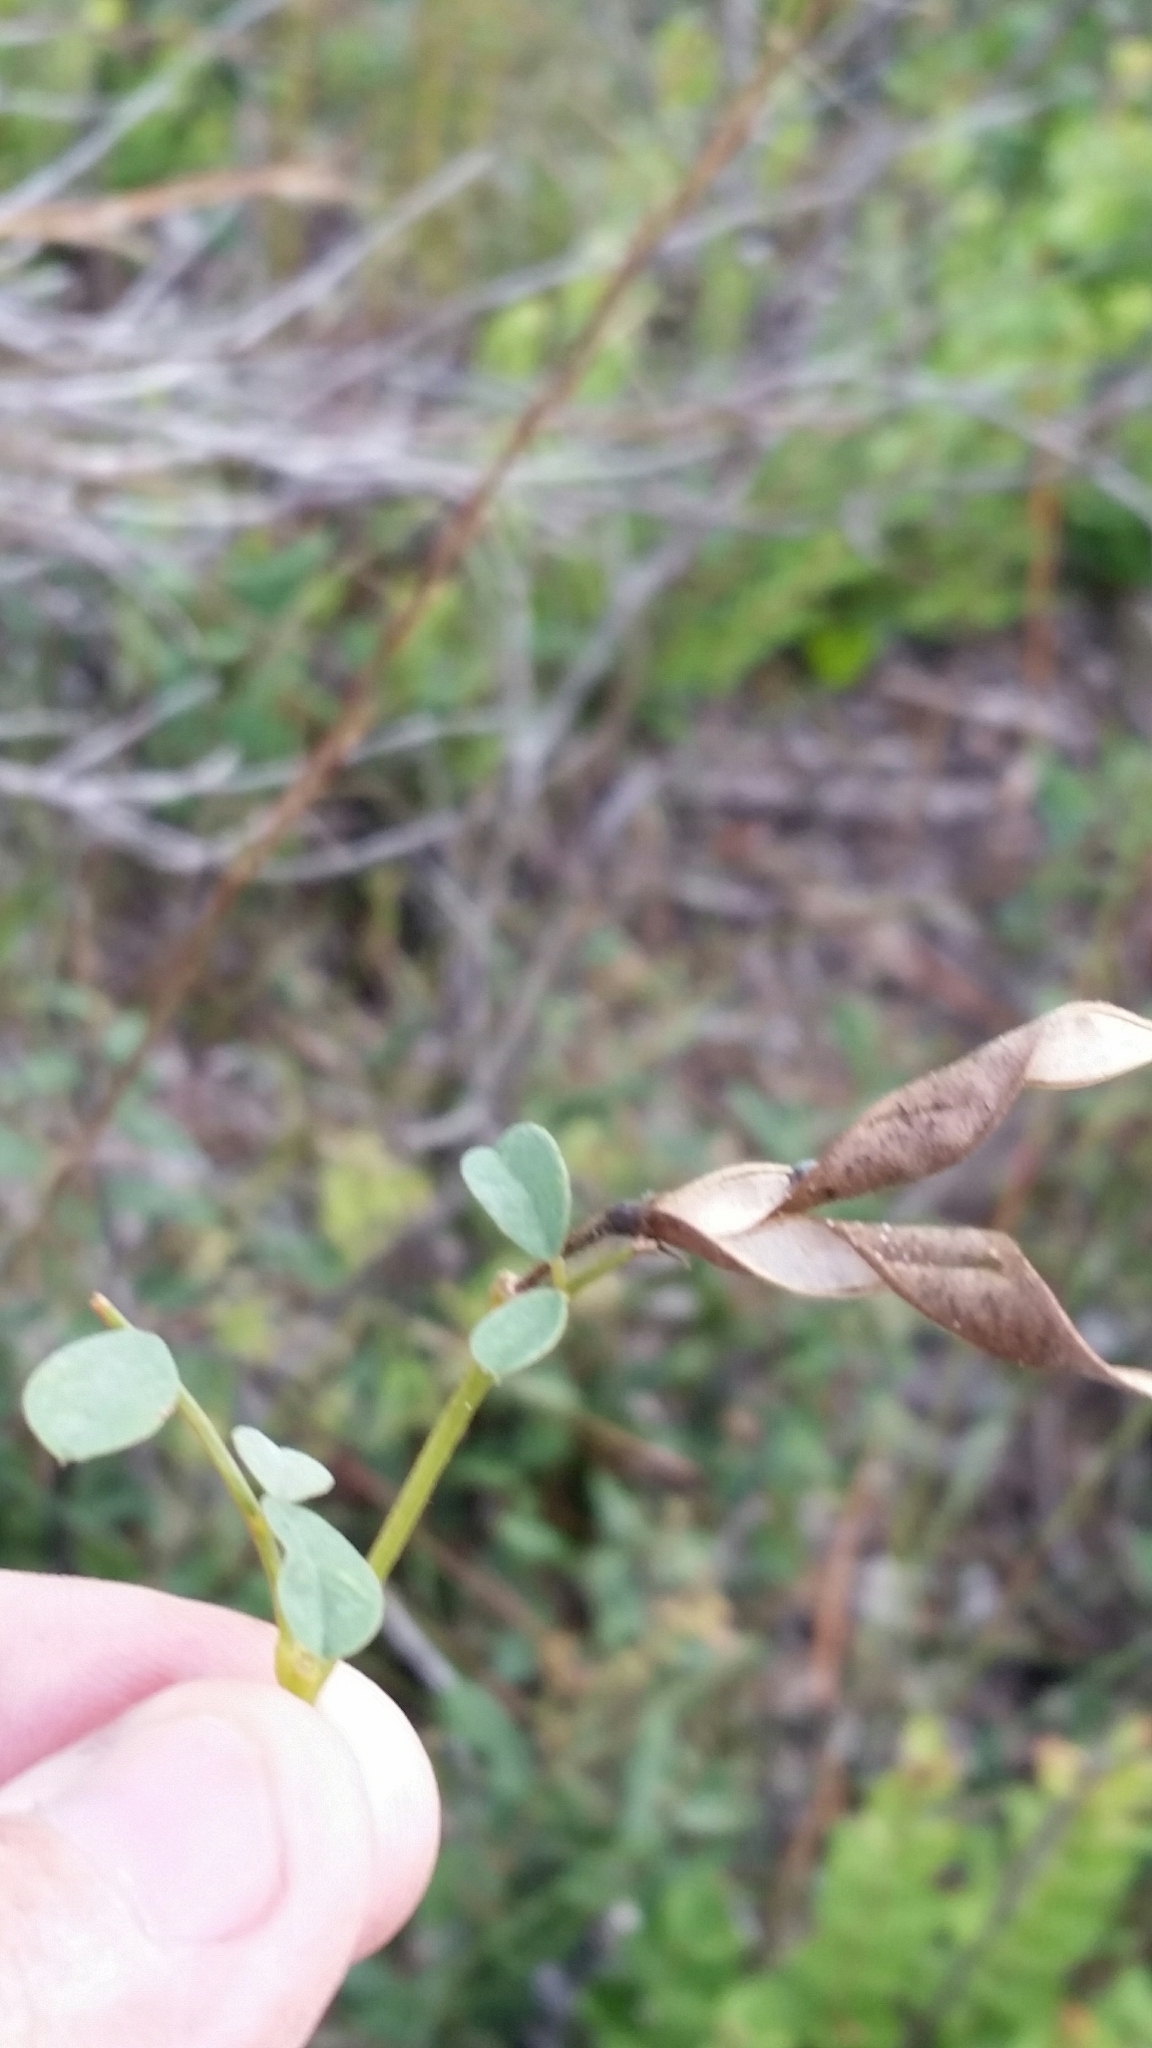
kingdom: Plantae
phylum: Tracheophyta
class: Magnoliopsida
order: Fabales
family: Fabaceae
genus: Tephrosia
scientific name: Tephrosia rugelii
